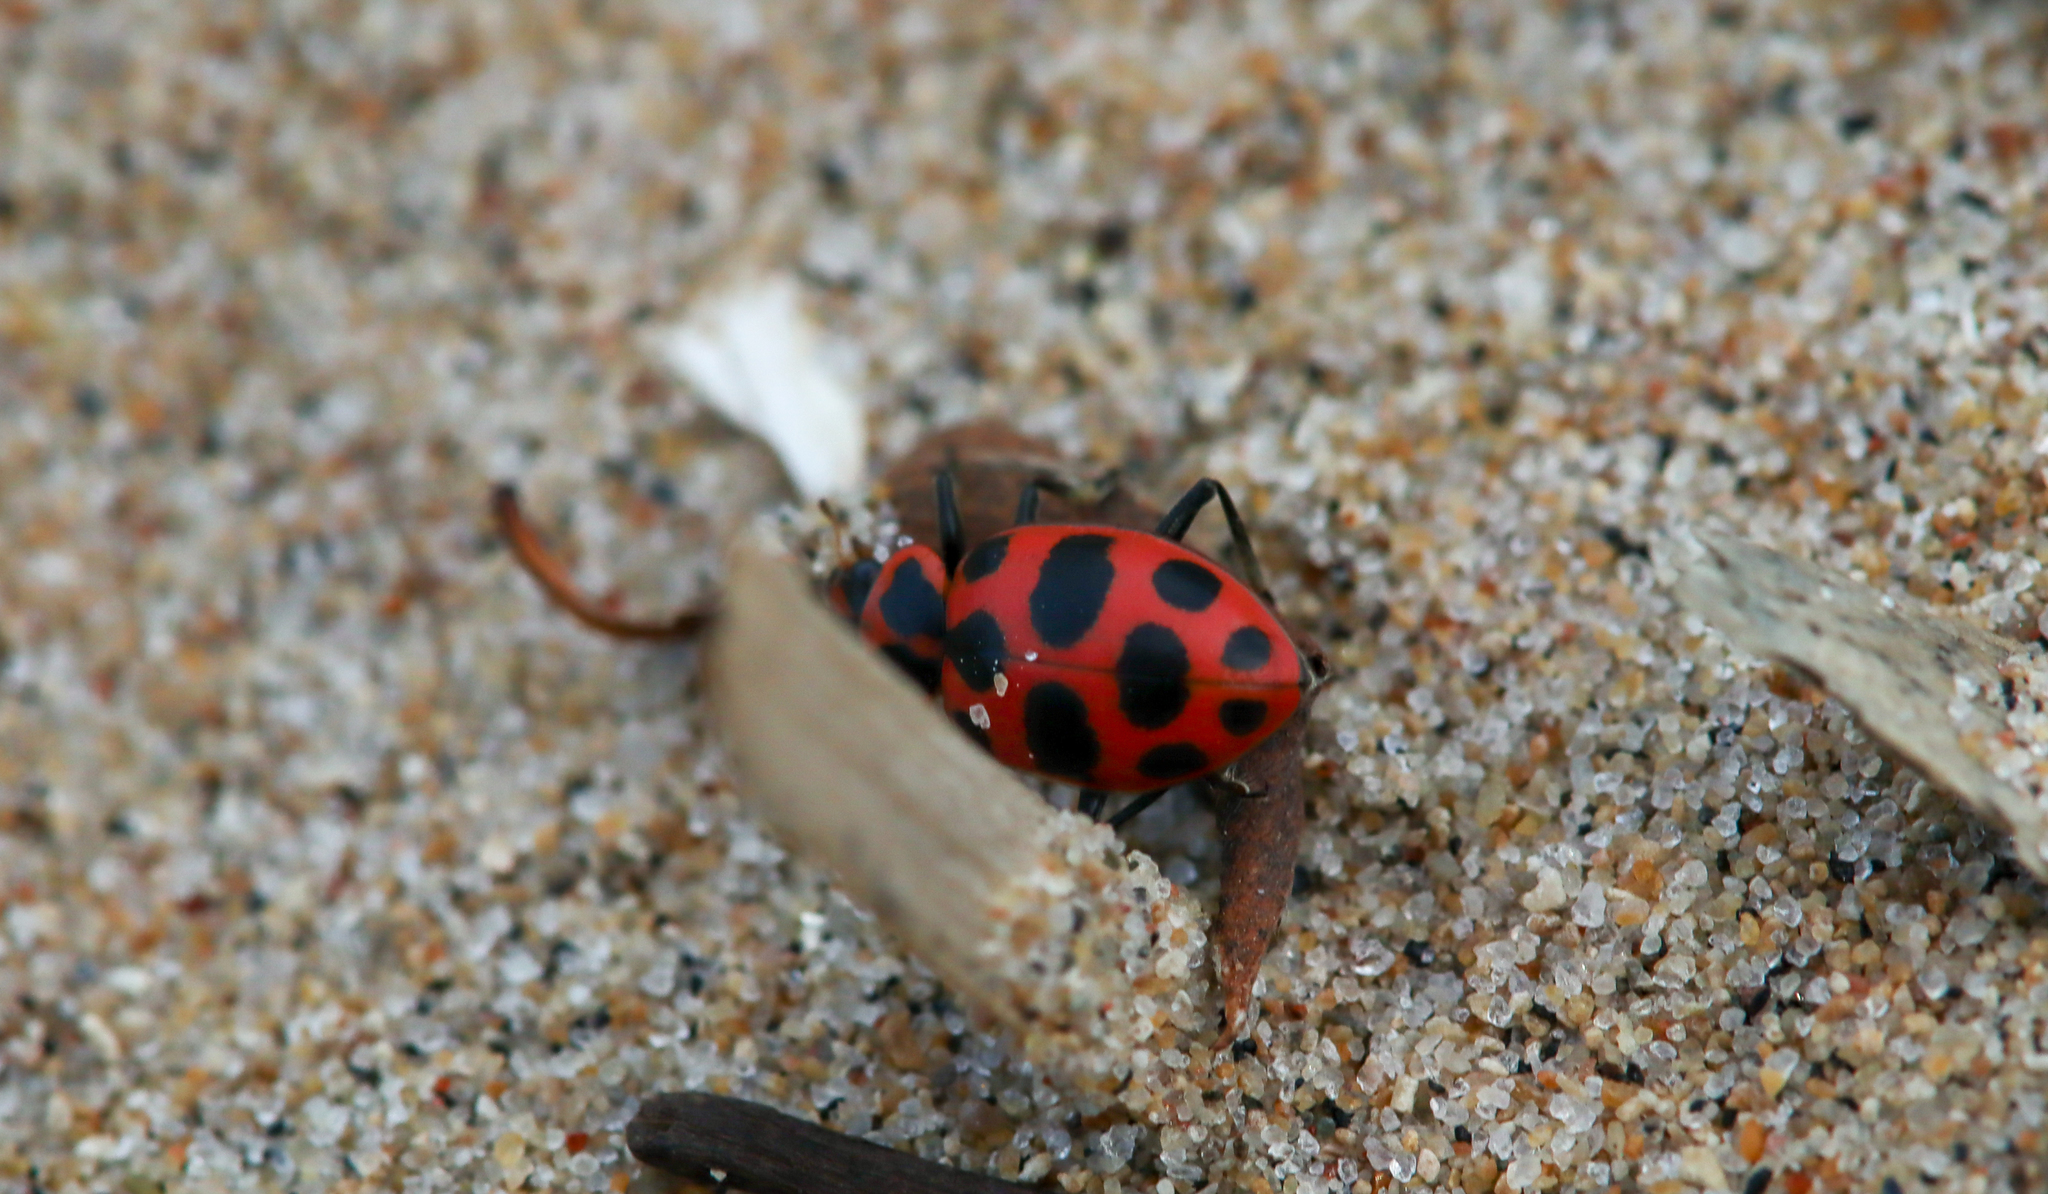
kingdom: Animalia
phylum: Arthropoda
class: Insecta
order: Coleoptera
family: Coccinellidae
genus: Coleomegilla
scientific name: Coleomegilla maculata
